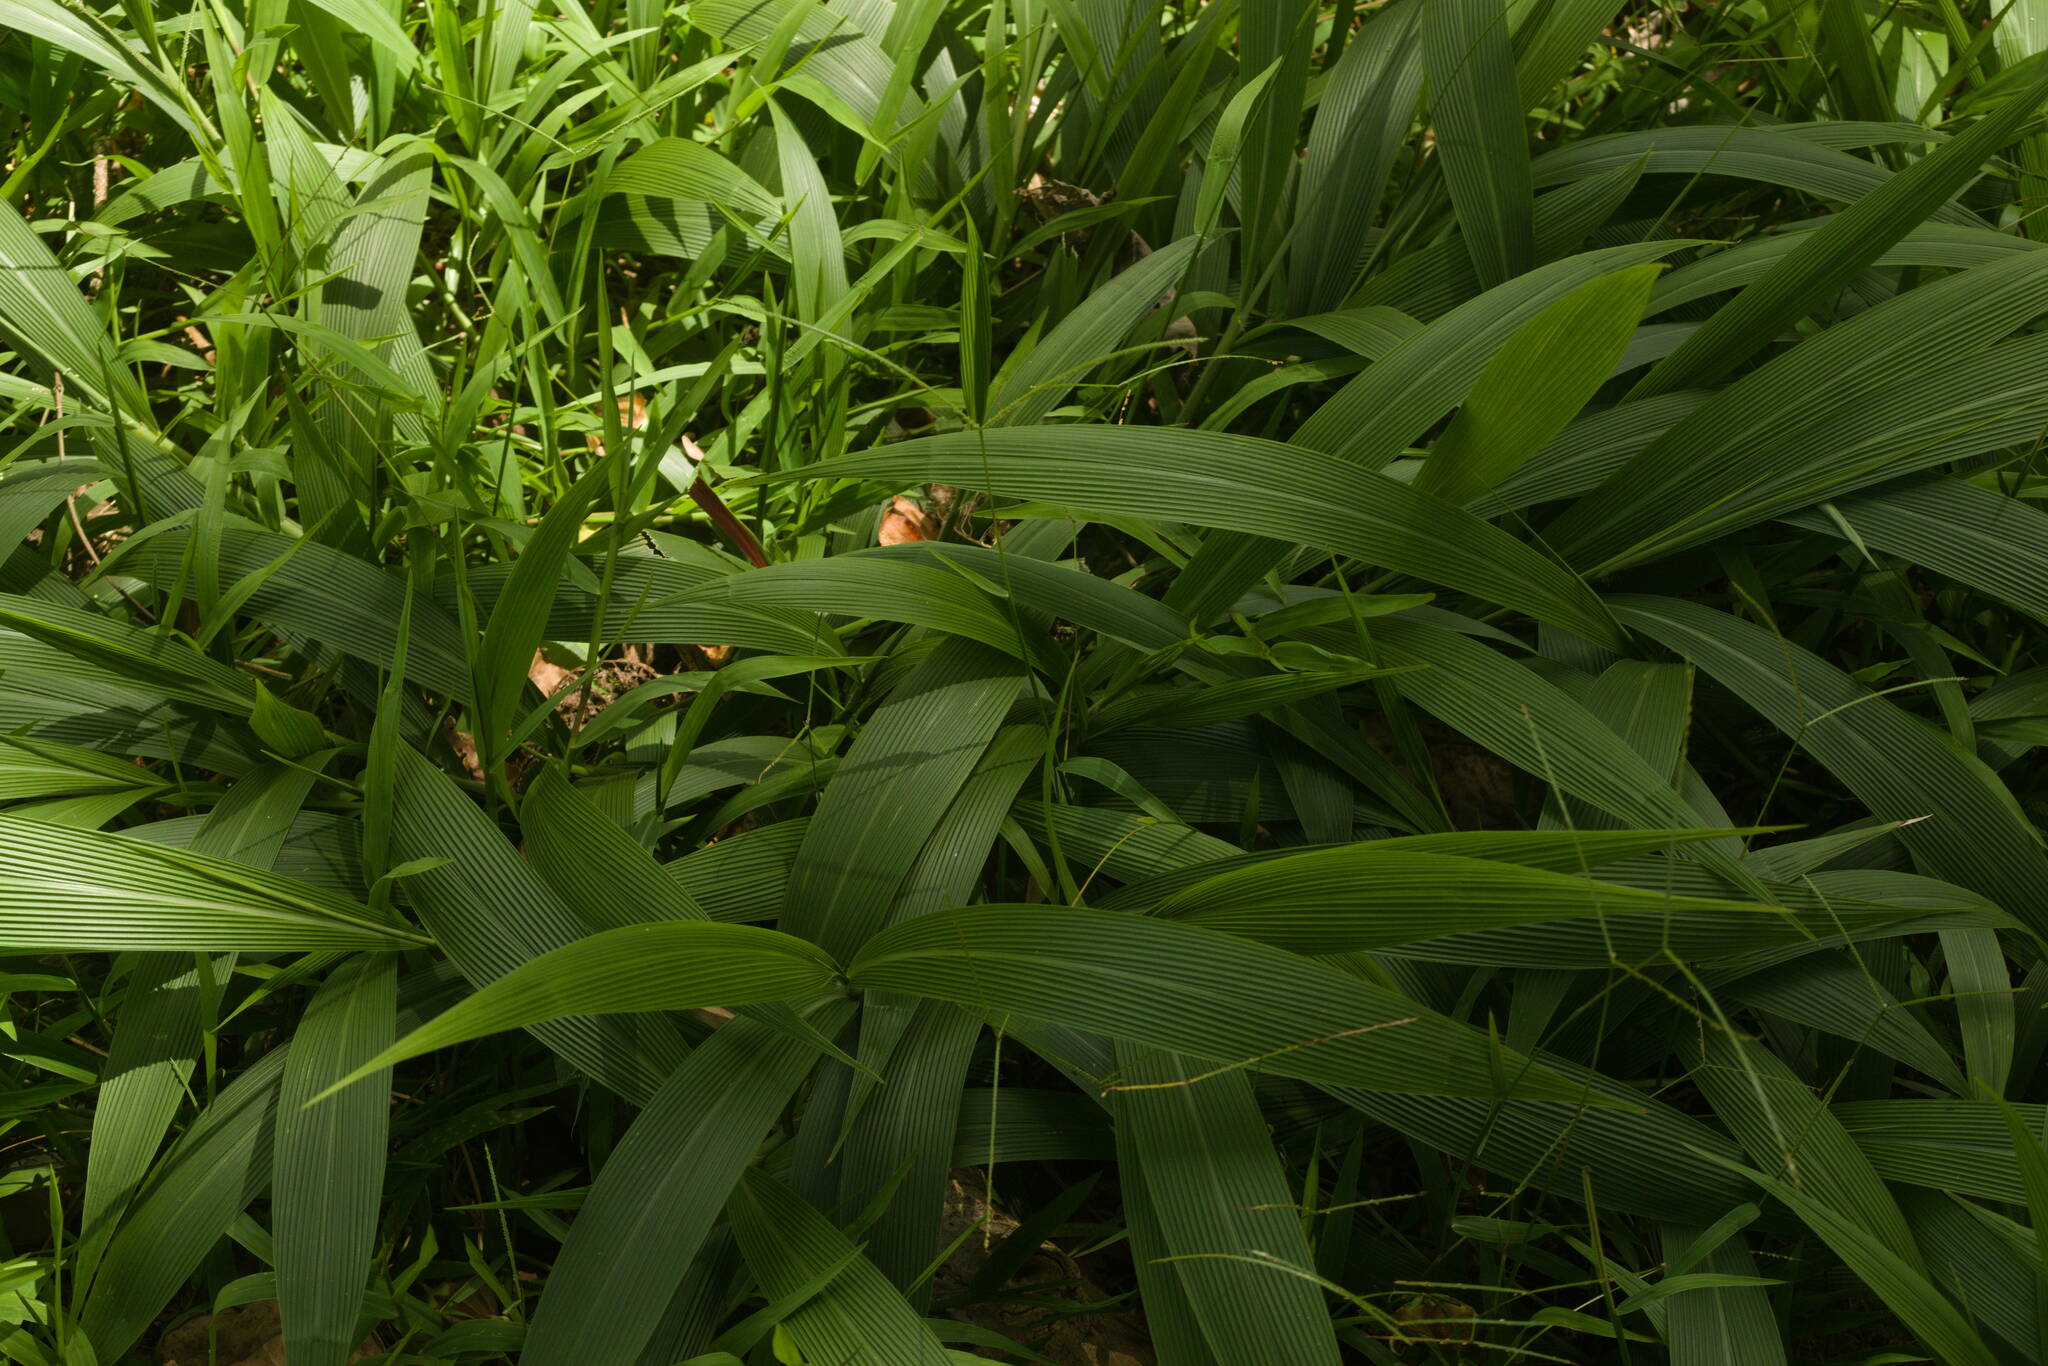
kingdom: Plantae
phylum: Tracheophyta
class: Liliopsida
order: Poales
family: Poaceae
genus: Setaria
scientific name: Setaria palmifolia
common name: Broadleaved bristlegrass
